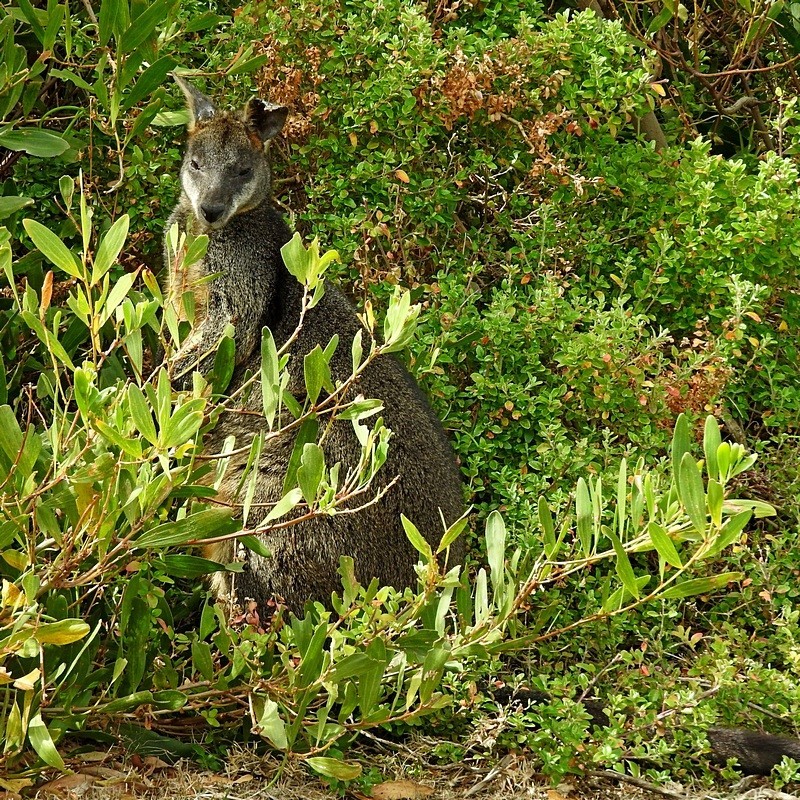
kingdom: Animalia
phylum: Chordata
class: Mammalia
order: Diprotodontia
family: Macropodidae
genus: Wallabia
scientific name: Wallabia bicolor
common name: Swamp wallaby
